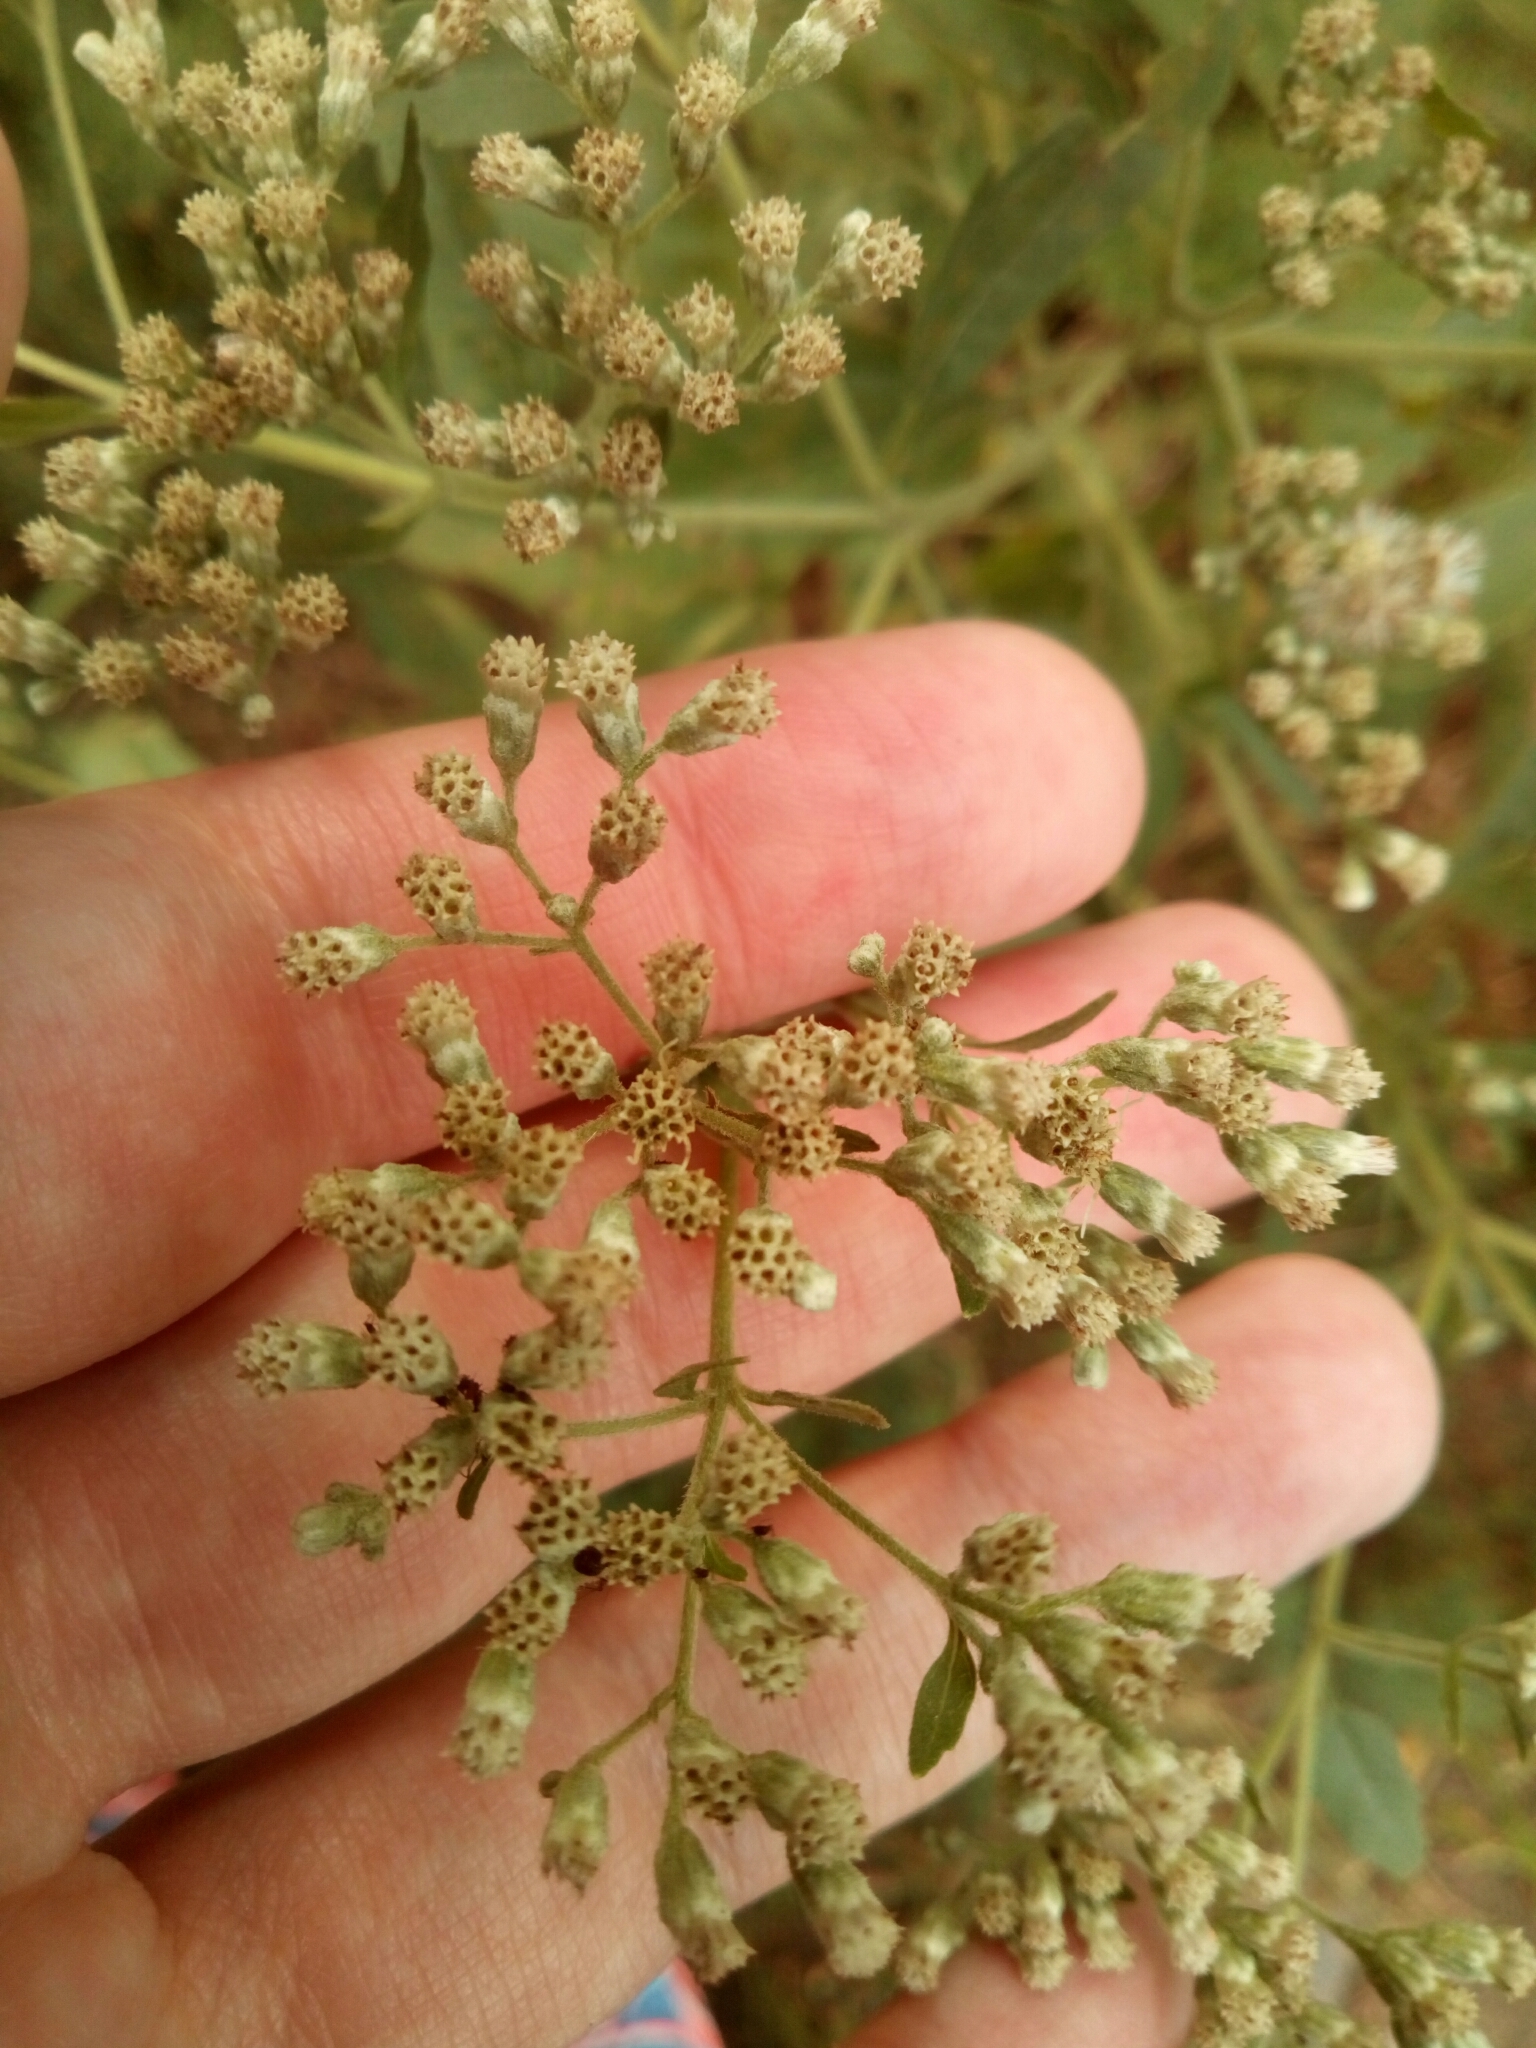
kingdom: Plantae
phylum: Tracheophyta
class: Magnoliopsida
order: Asterales
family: Asteraceae
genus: Eupatorium
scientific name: Eupatorium serotinum
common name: Late boneset
